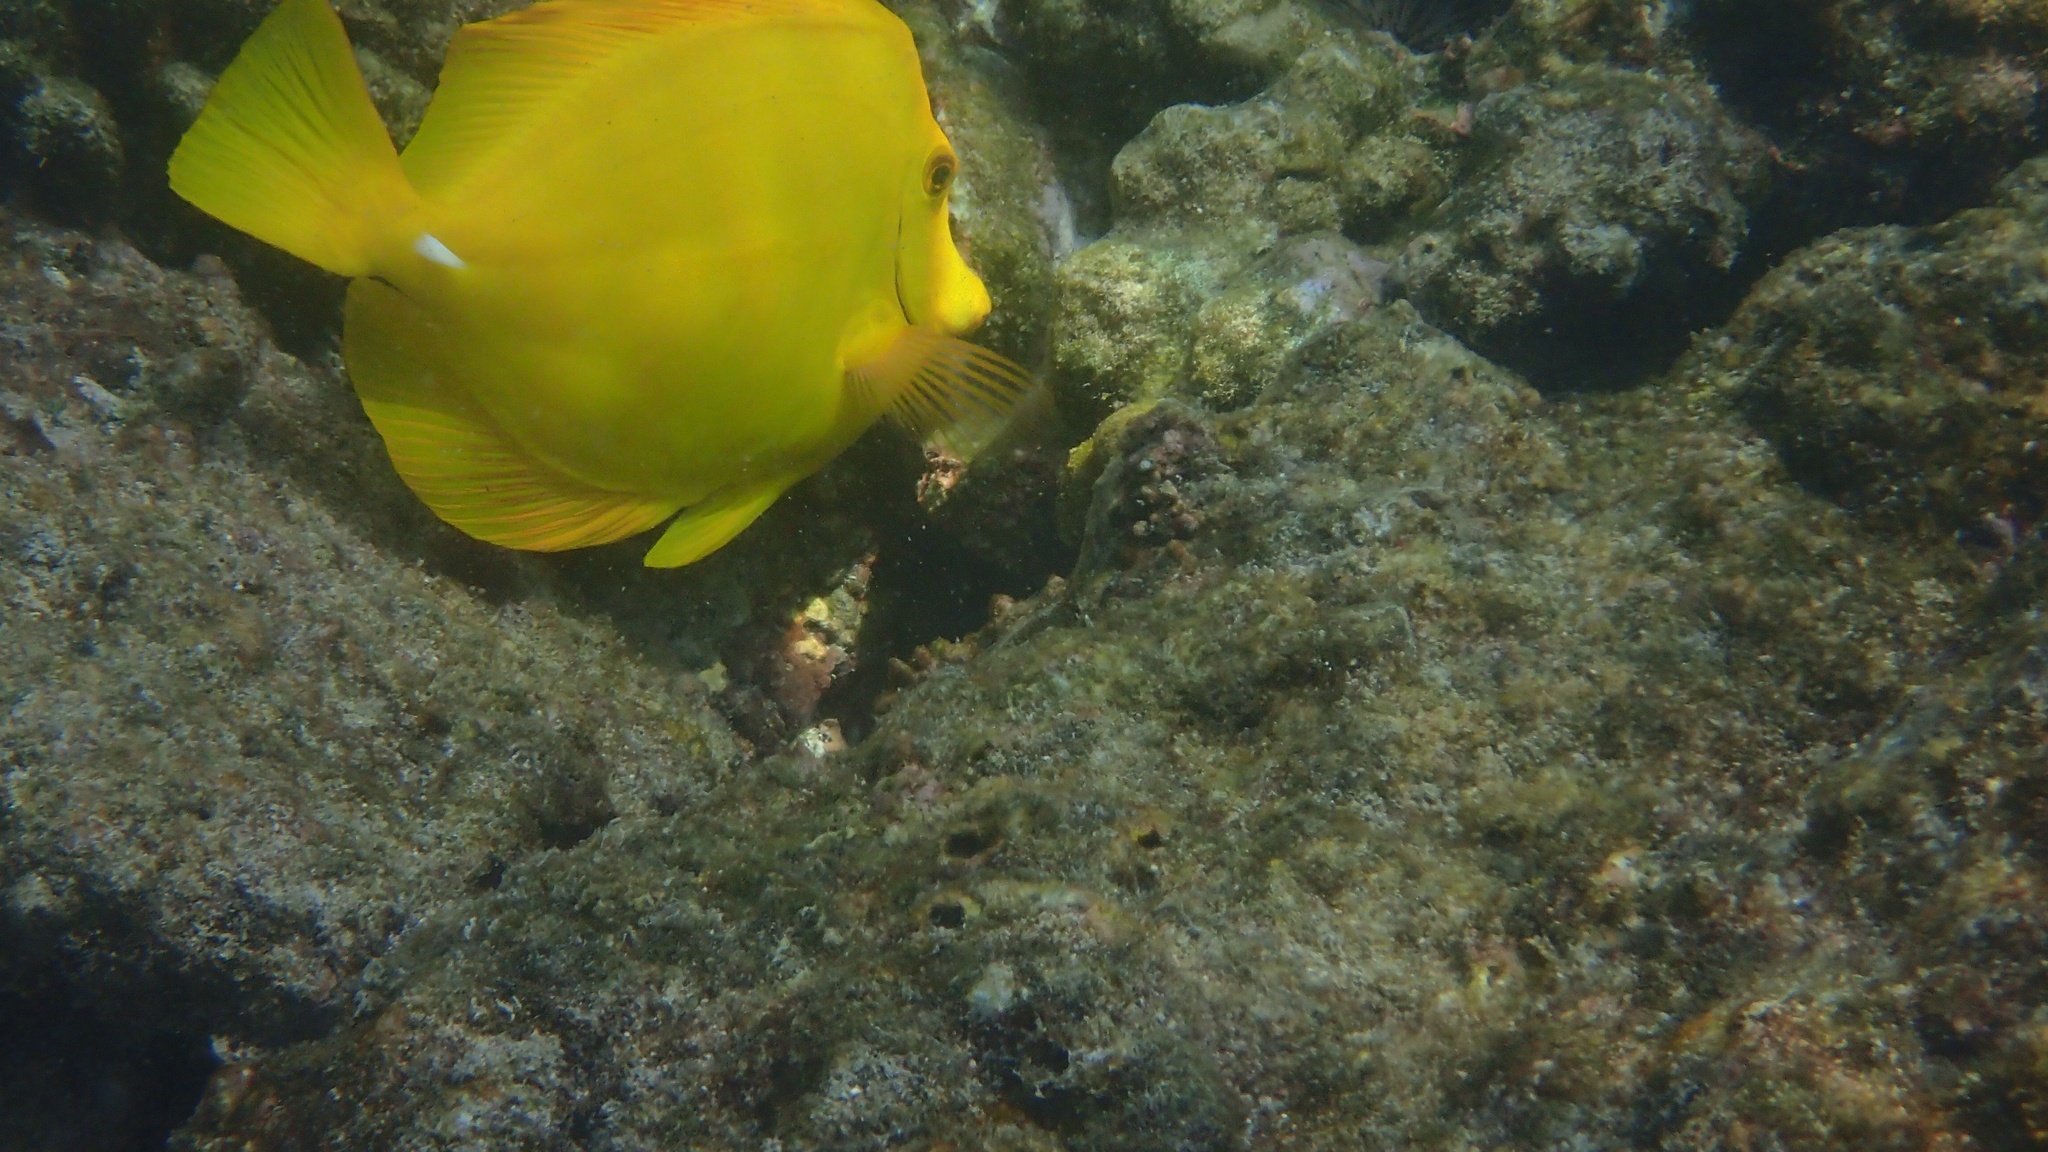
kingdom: Animalia
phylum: Chordata
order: Perciformes
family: Acanthuridae
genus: Zebrasoma
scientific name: Zebrasoma flavescens
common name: Yellow tang
